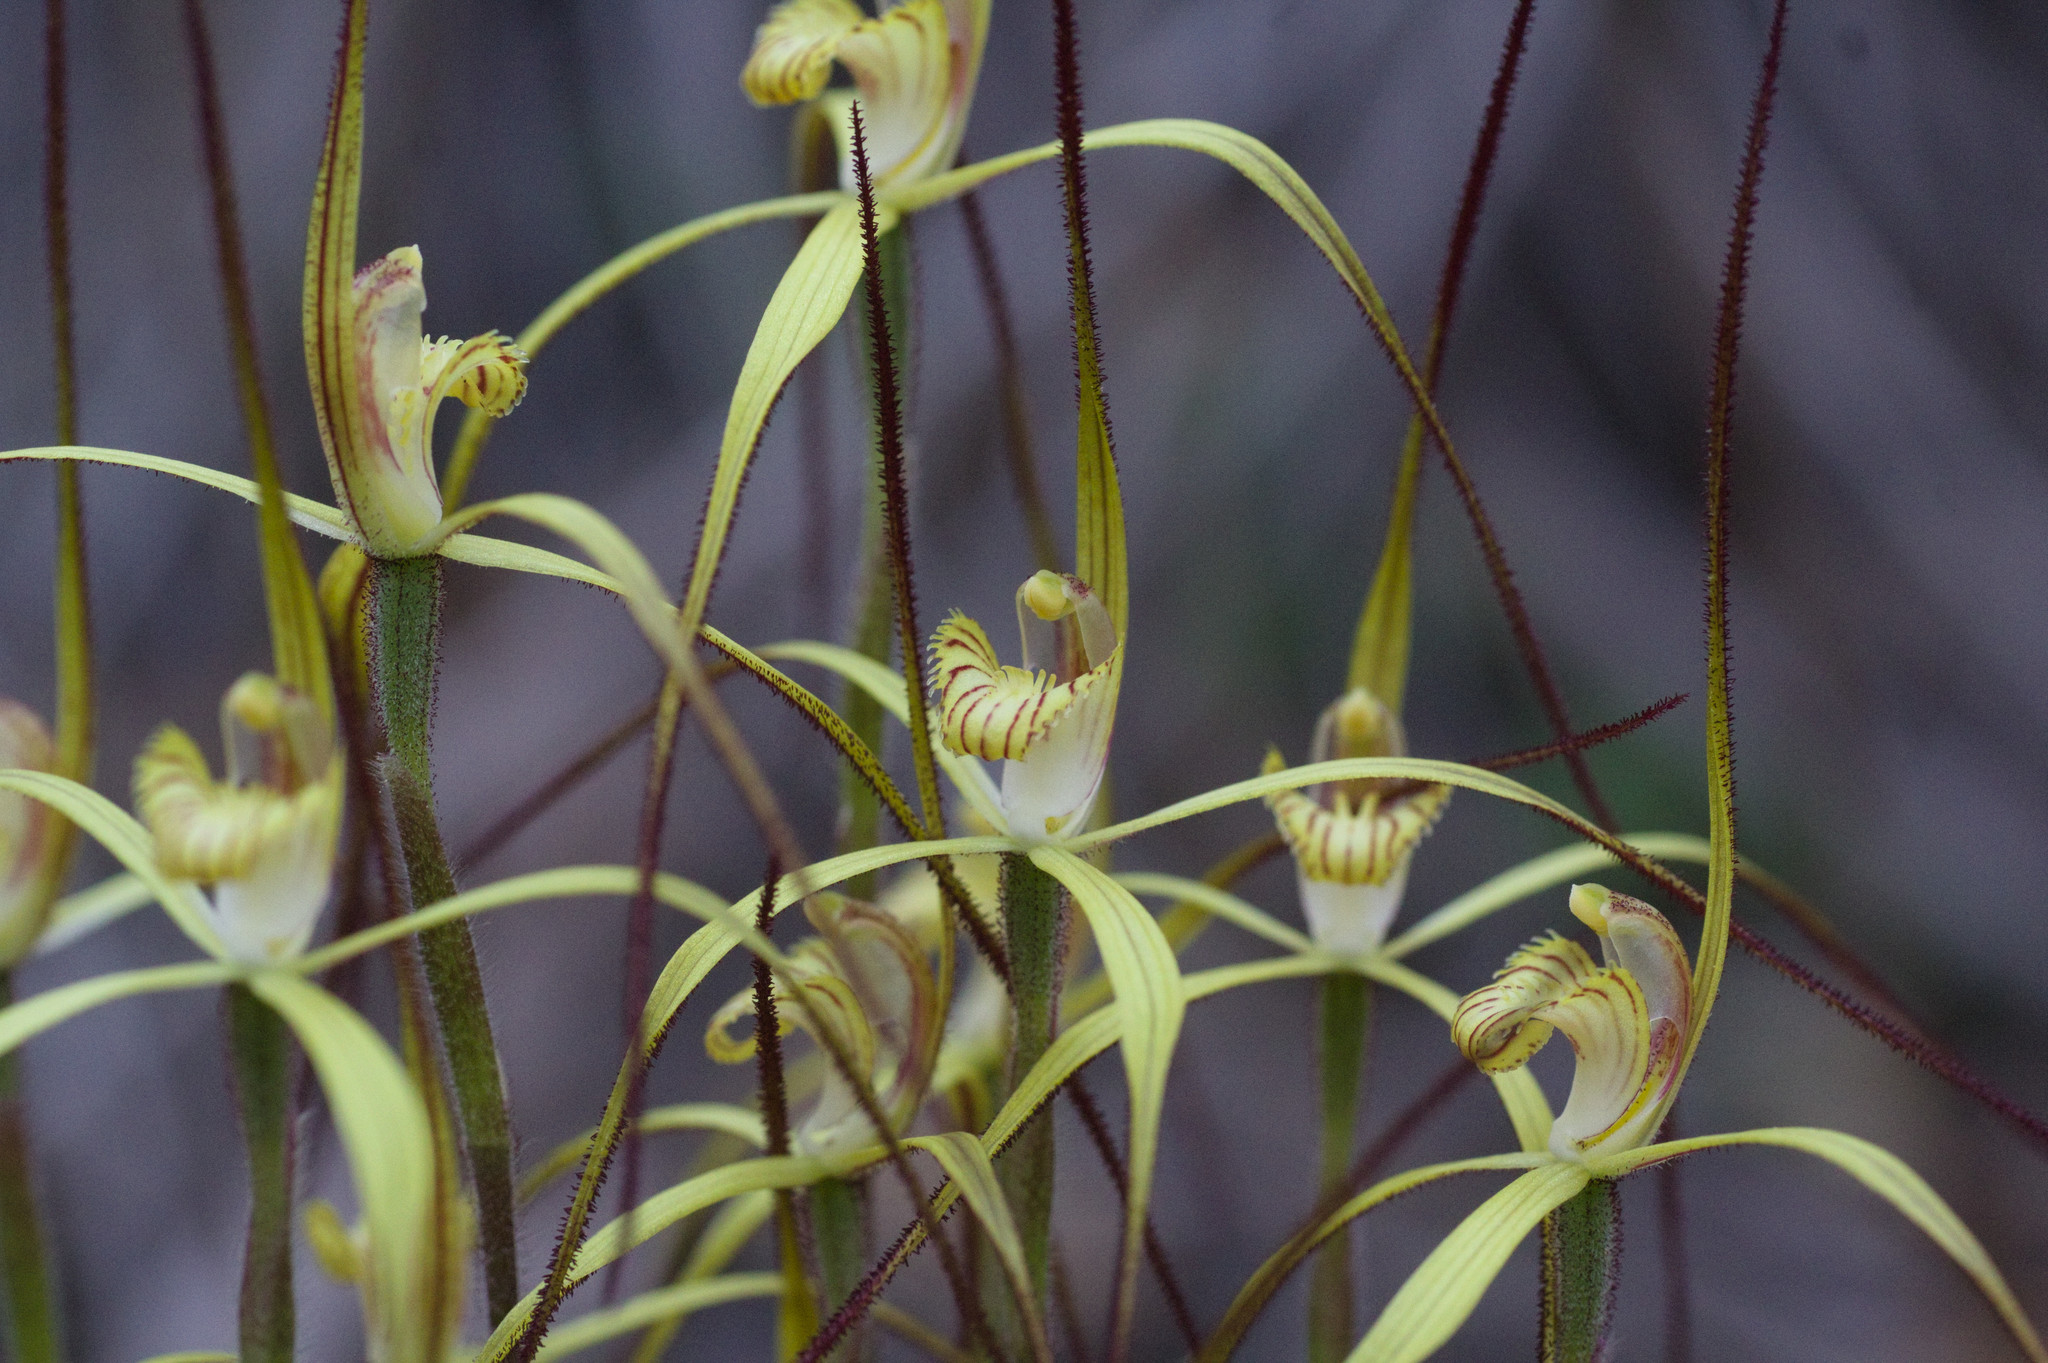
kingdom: Plantae
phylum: Tracheophyta
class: Liliopsida
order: Asparagales
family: Orchidaceae
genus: Caladenia
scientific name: Caladenia xantha
